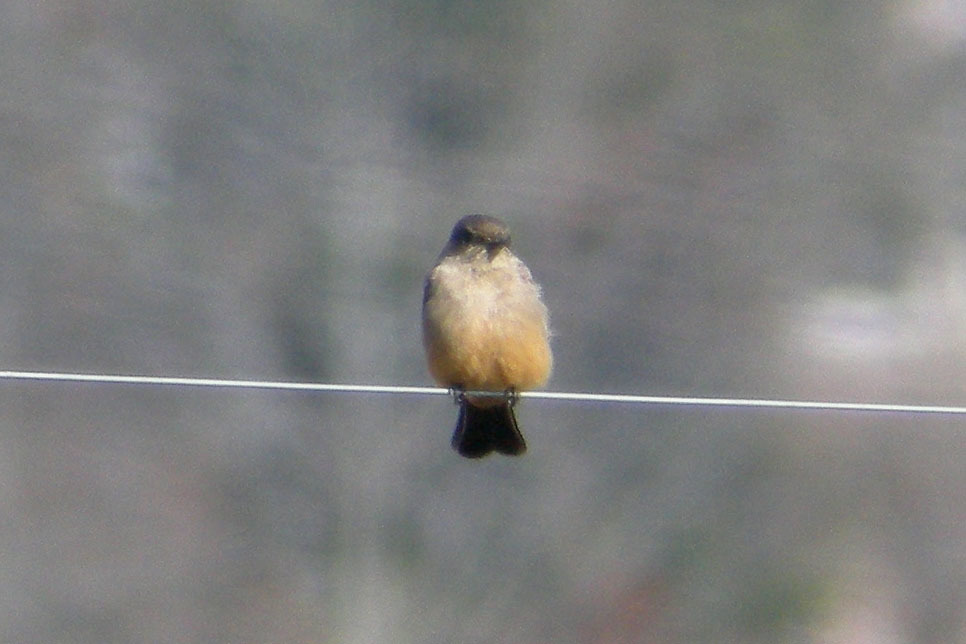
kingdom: Animalia
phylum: Chordata
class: Aves
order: Passeriformes
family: Tyrannidae
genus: Sayornis
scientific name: Sayornis saya
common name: Say's phoebe
